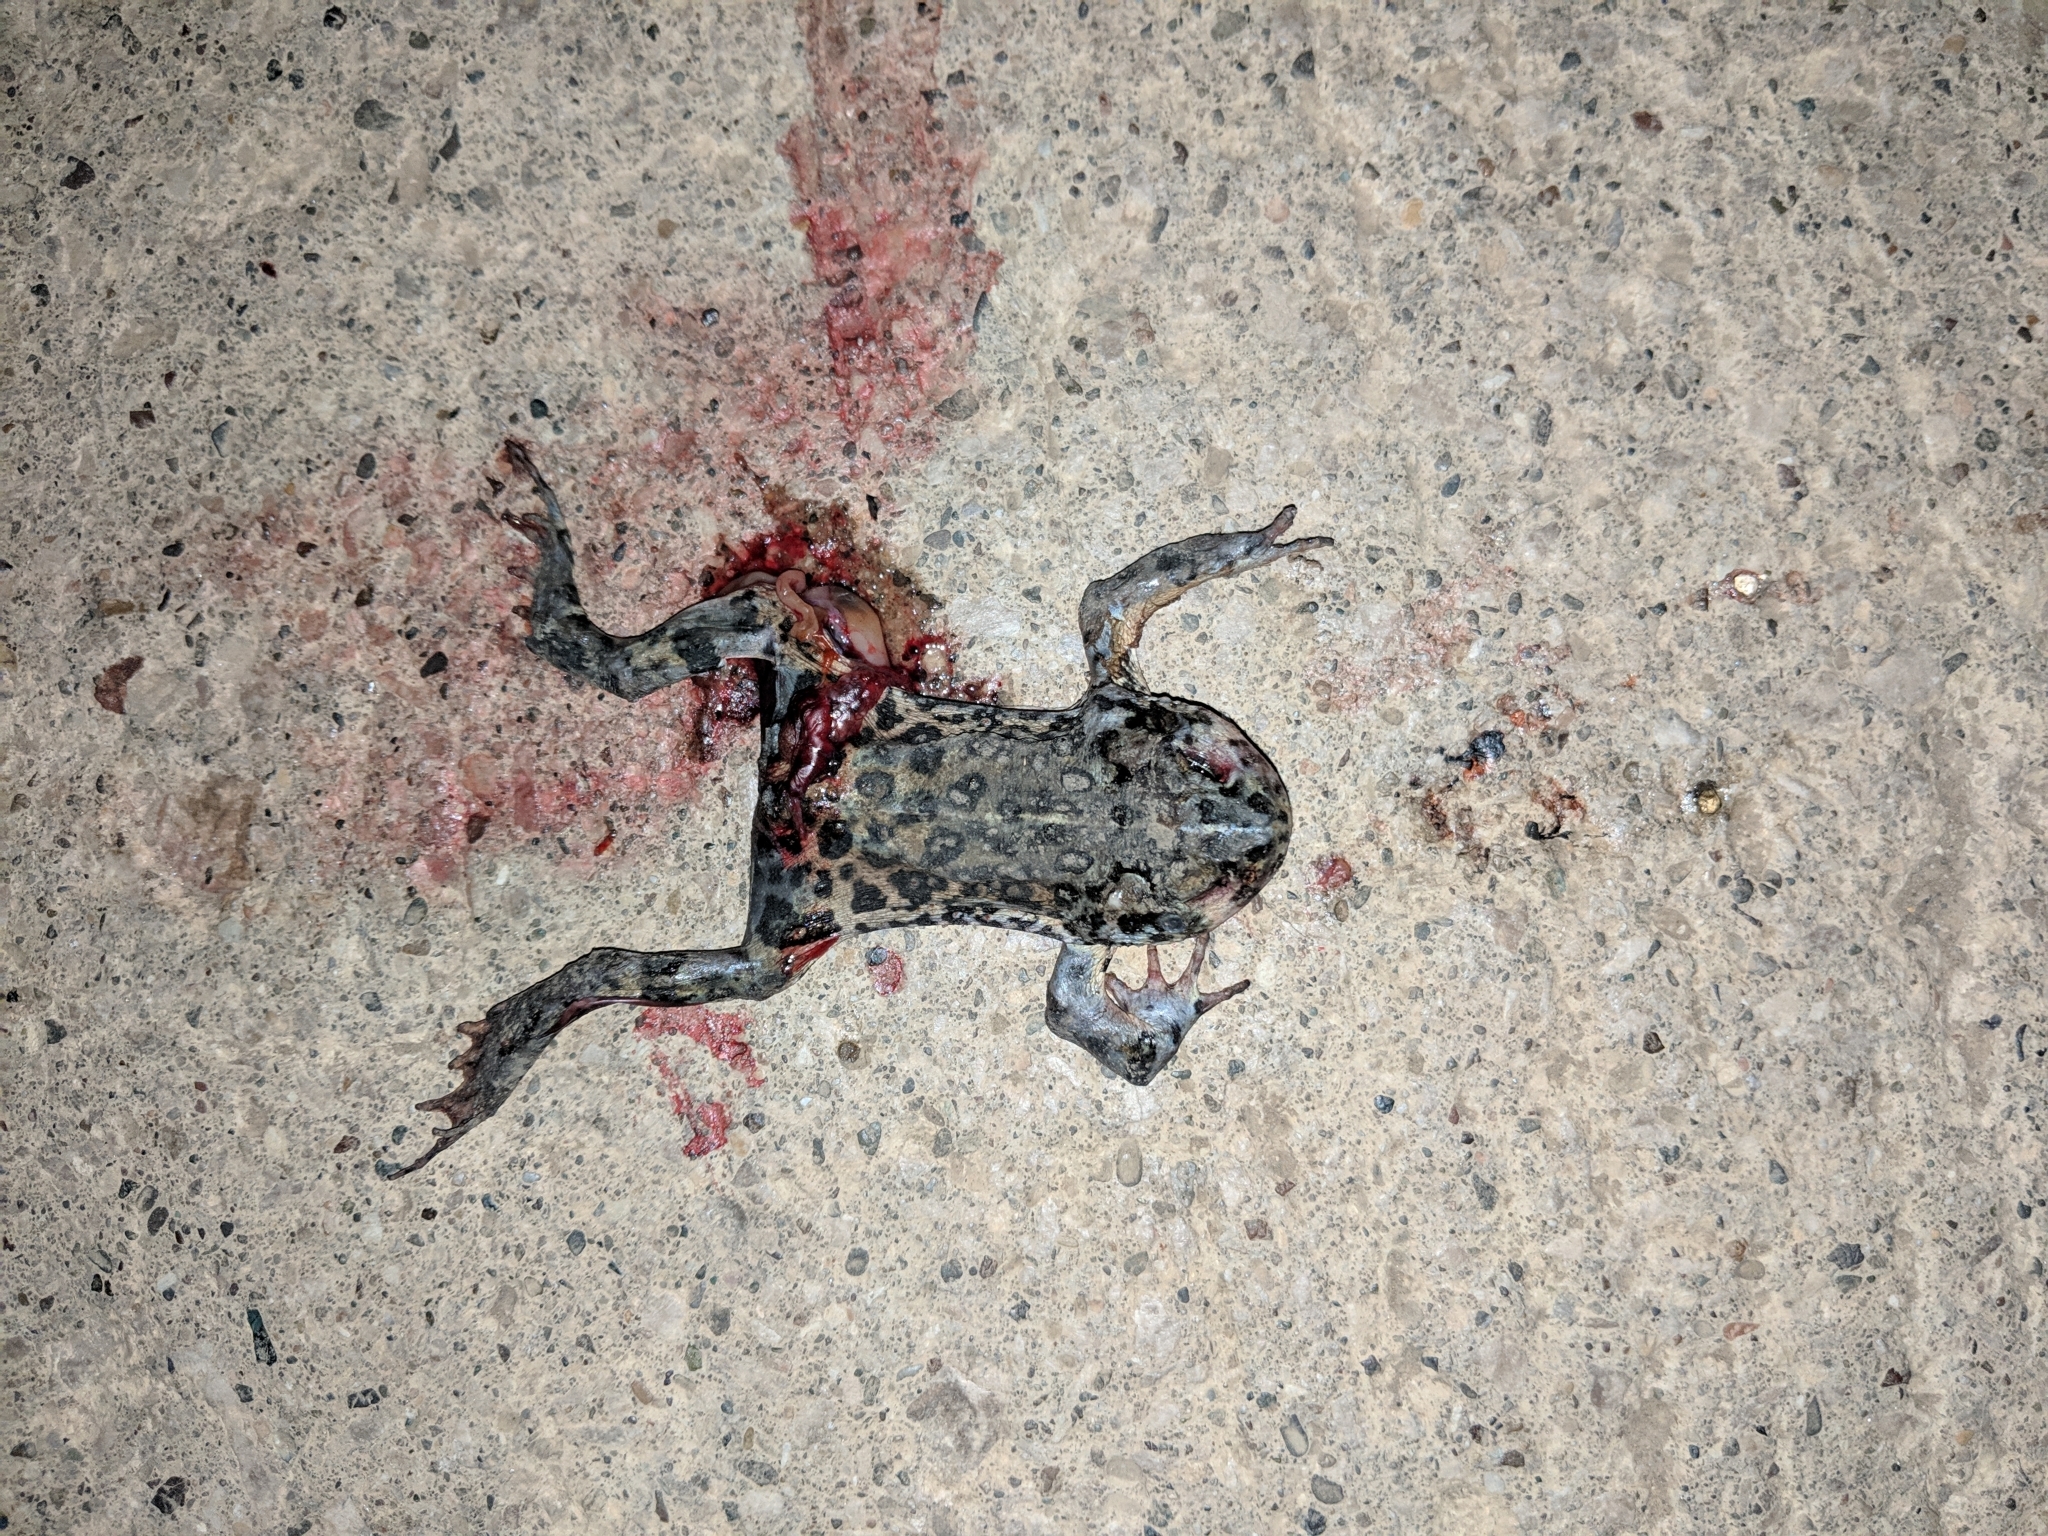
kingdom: Animalia
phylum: Chordata
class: Amphibia
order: Anura
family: Bufonidae
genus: Anaxyrus
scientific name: Anaxyrus boreas
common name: Western toad
